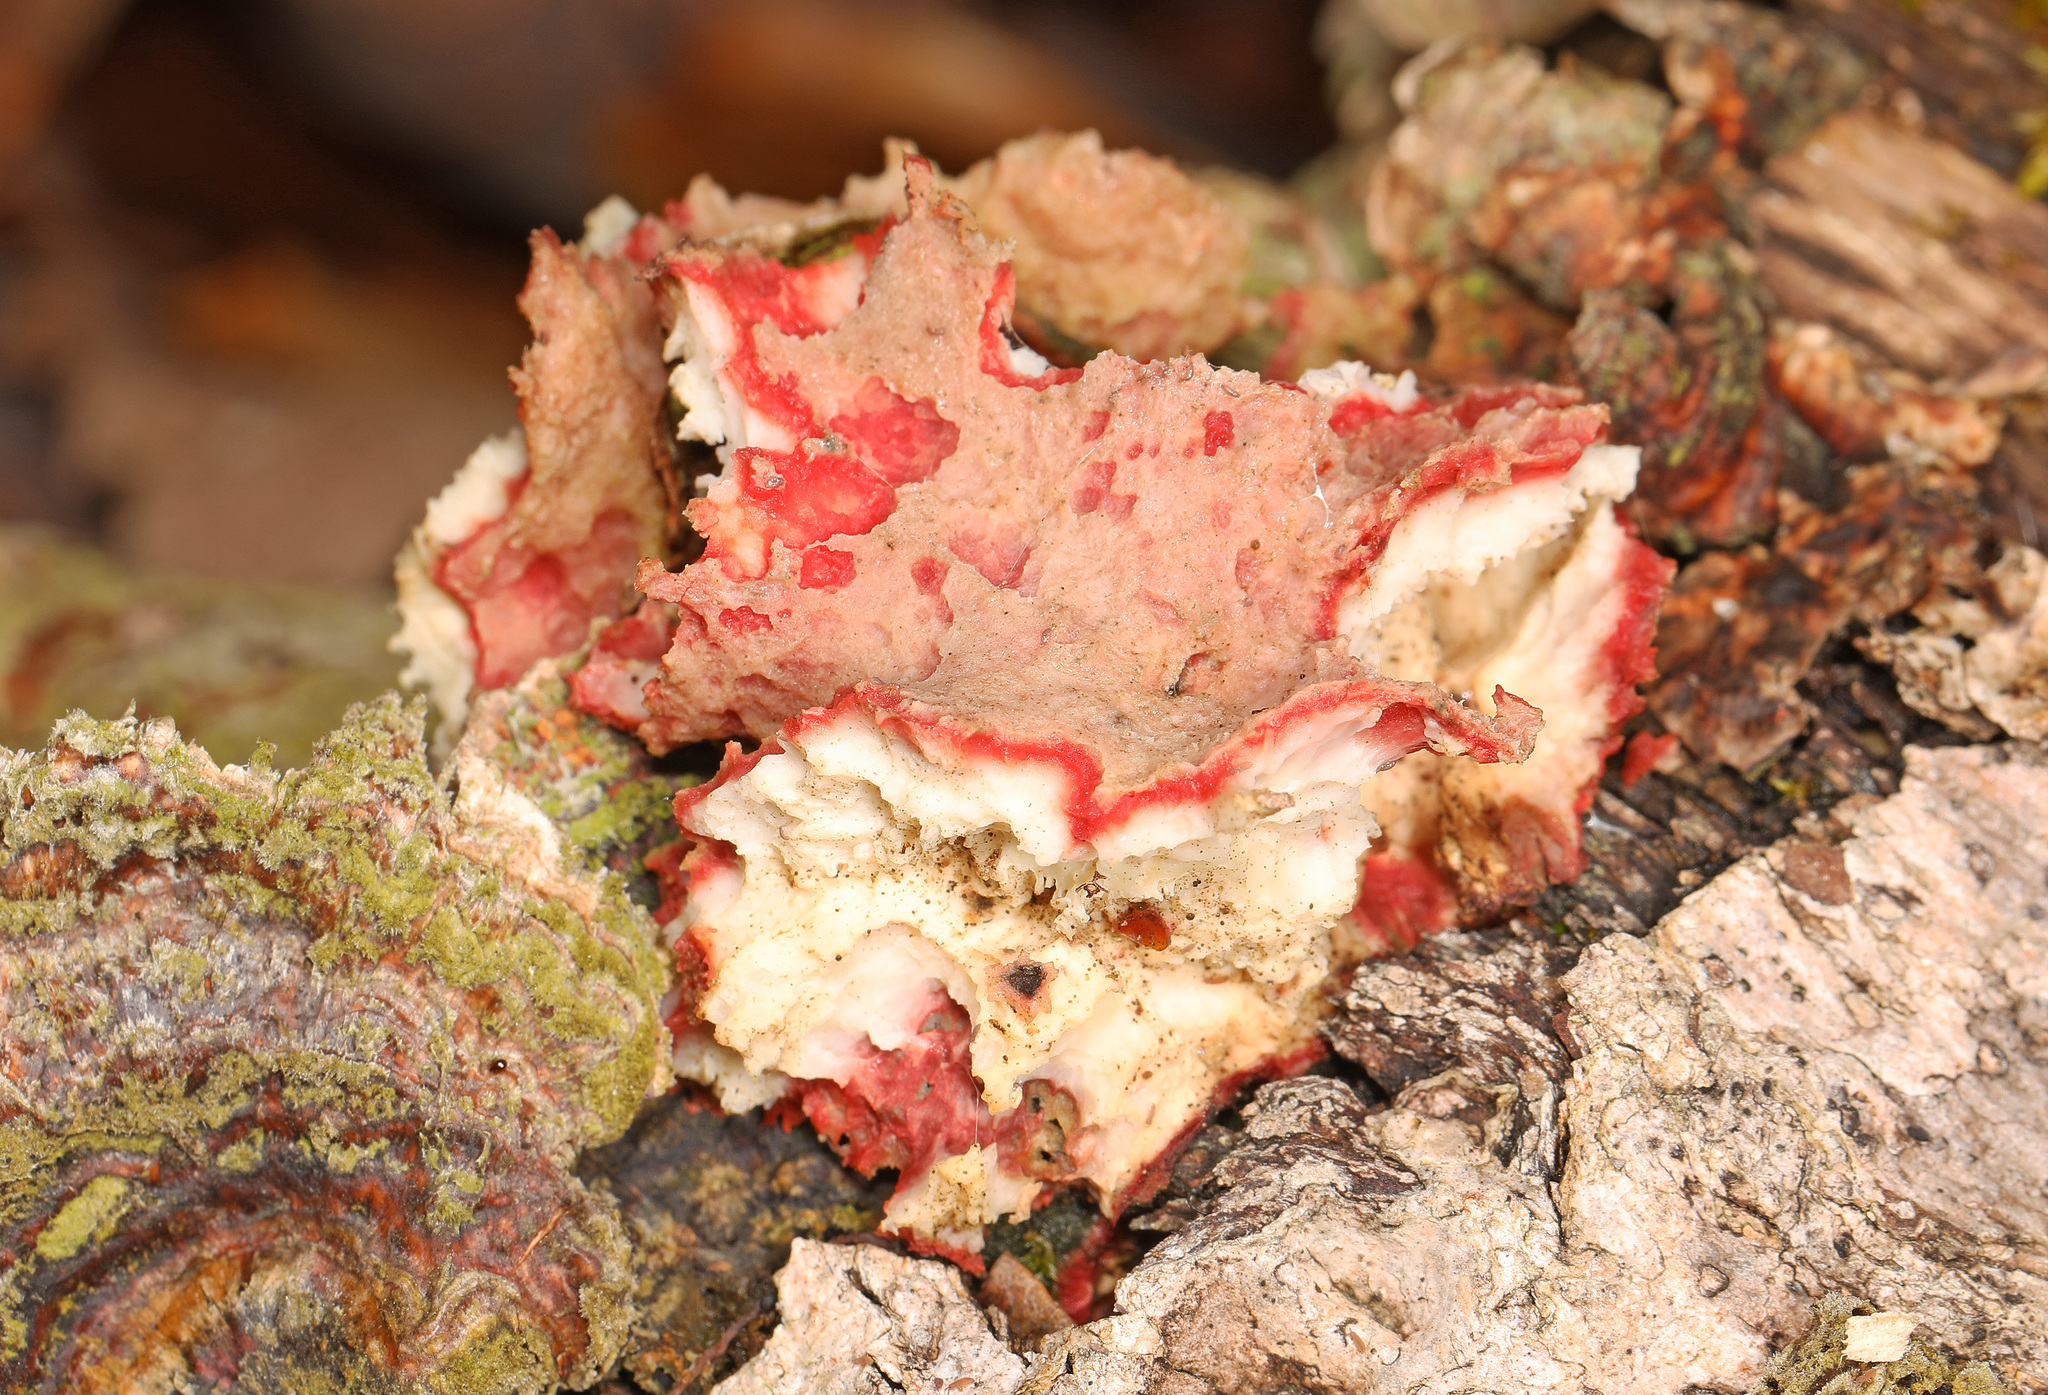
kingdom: Fungi
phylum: Basidiomycota
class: Agaricomycetes
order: Polyporales
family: Irpicaceae
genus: Byssomerulius
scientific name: Byssomerulius incarnatus
